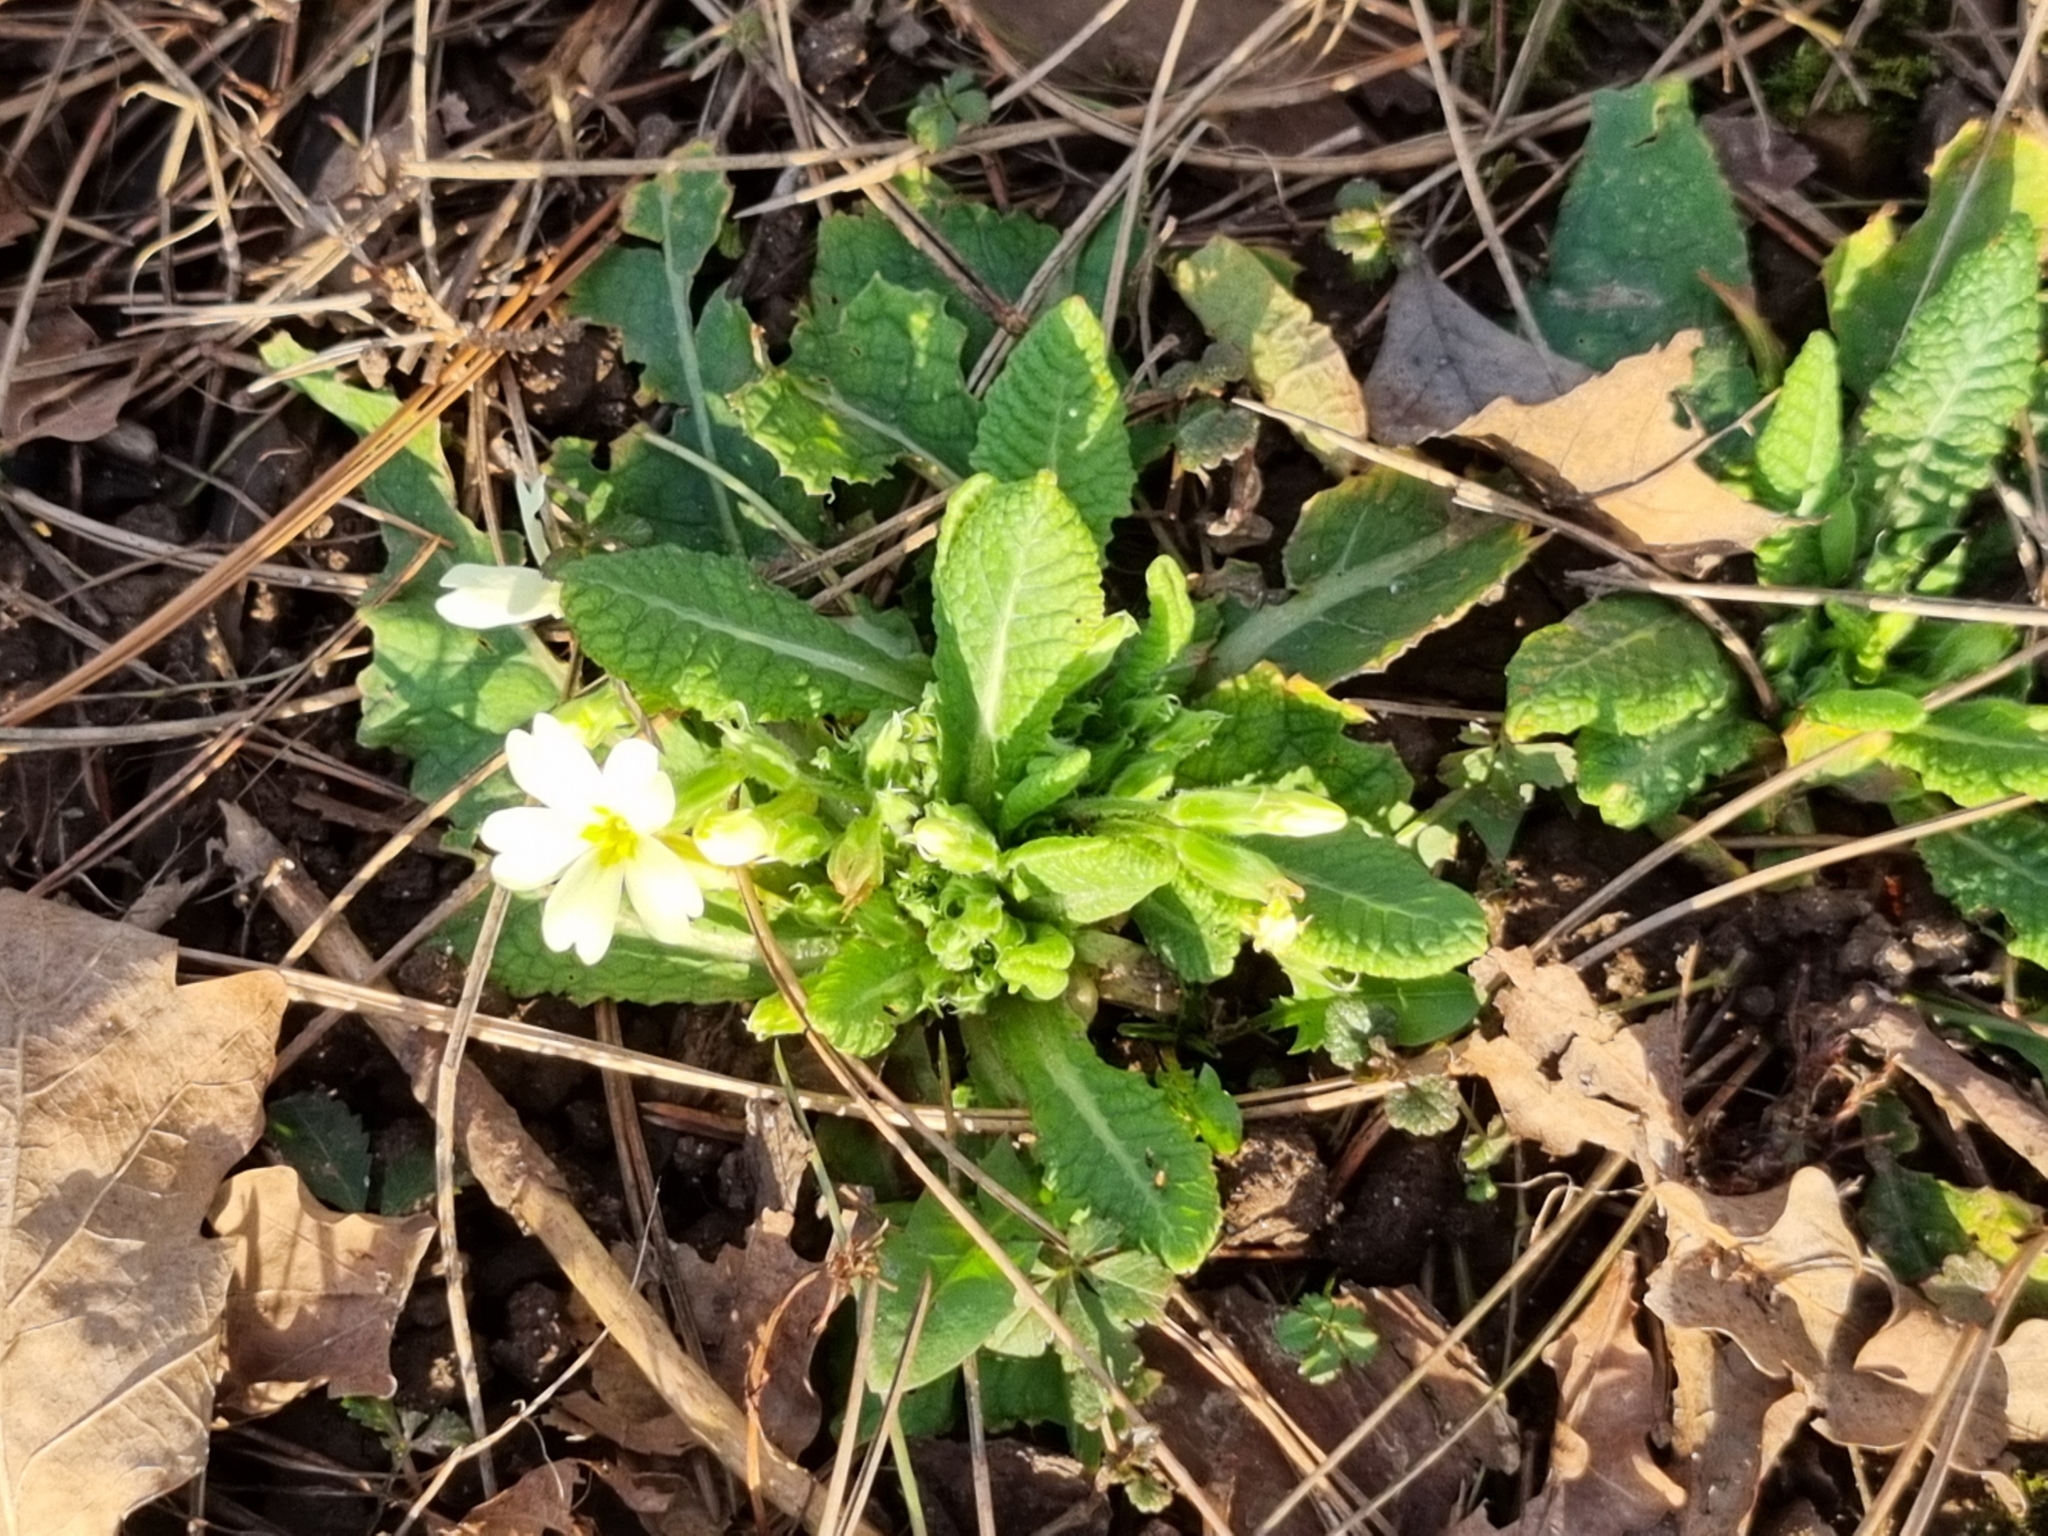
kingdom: Plantae
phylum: Tracheophyta
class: Magnoliopsida
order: Ericales
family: Primulaceae
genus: Primula
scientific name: Primula vulgaris
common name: Primrose
